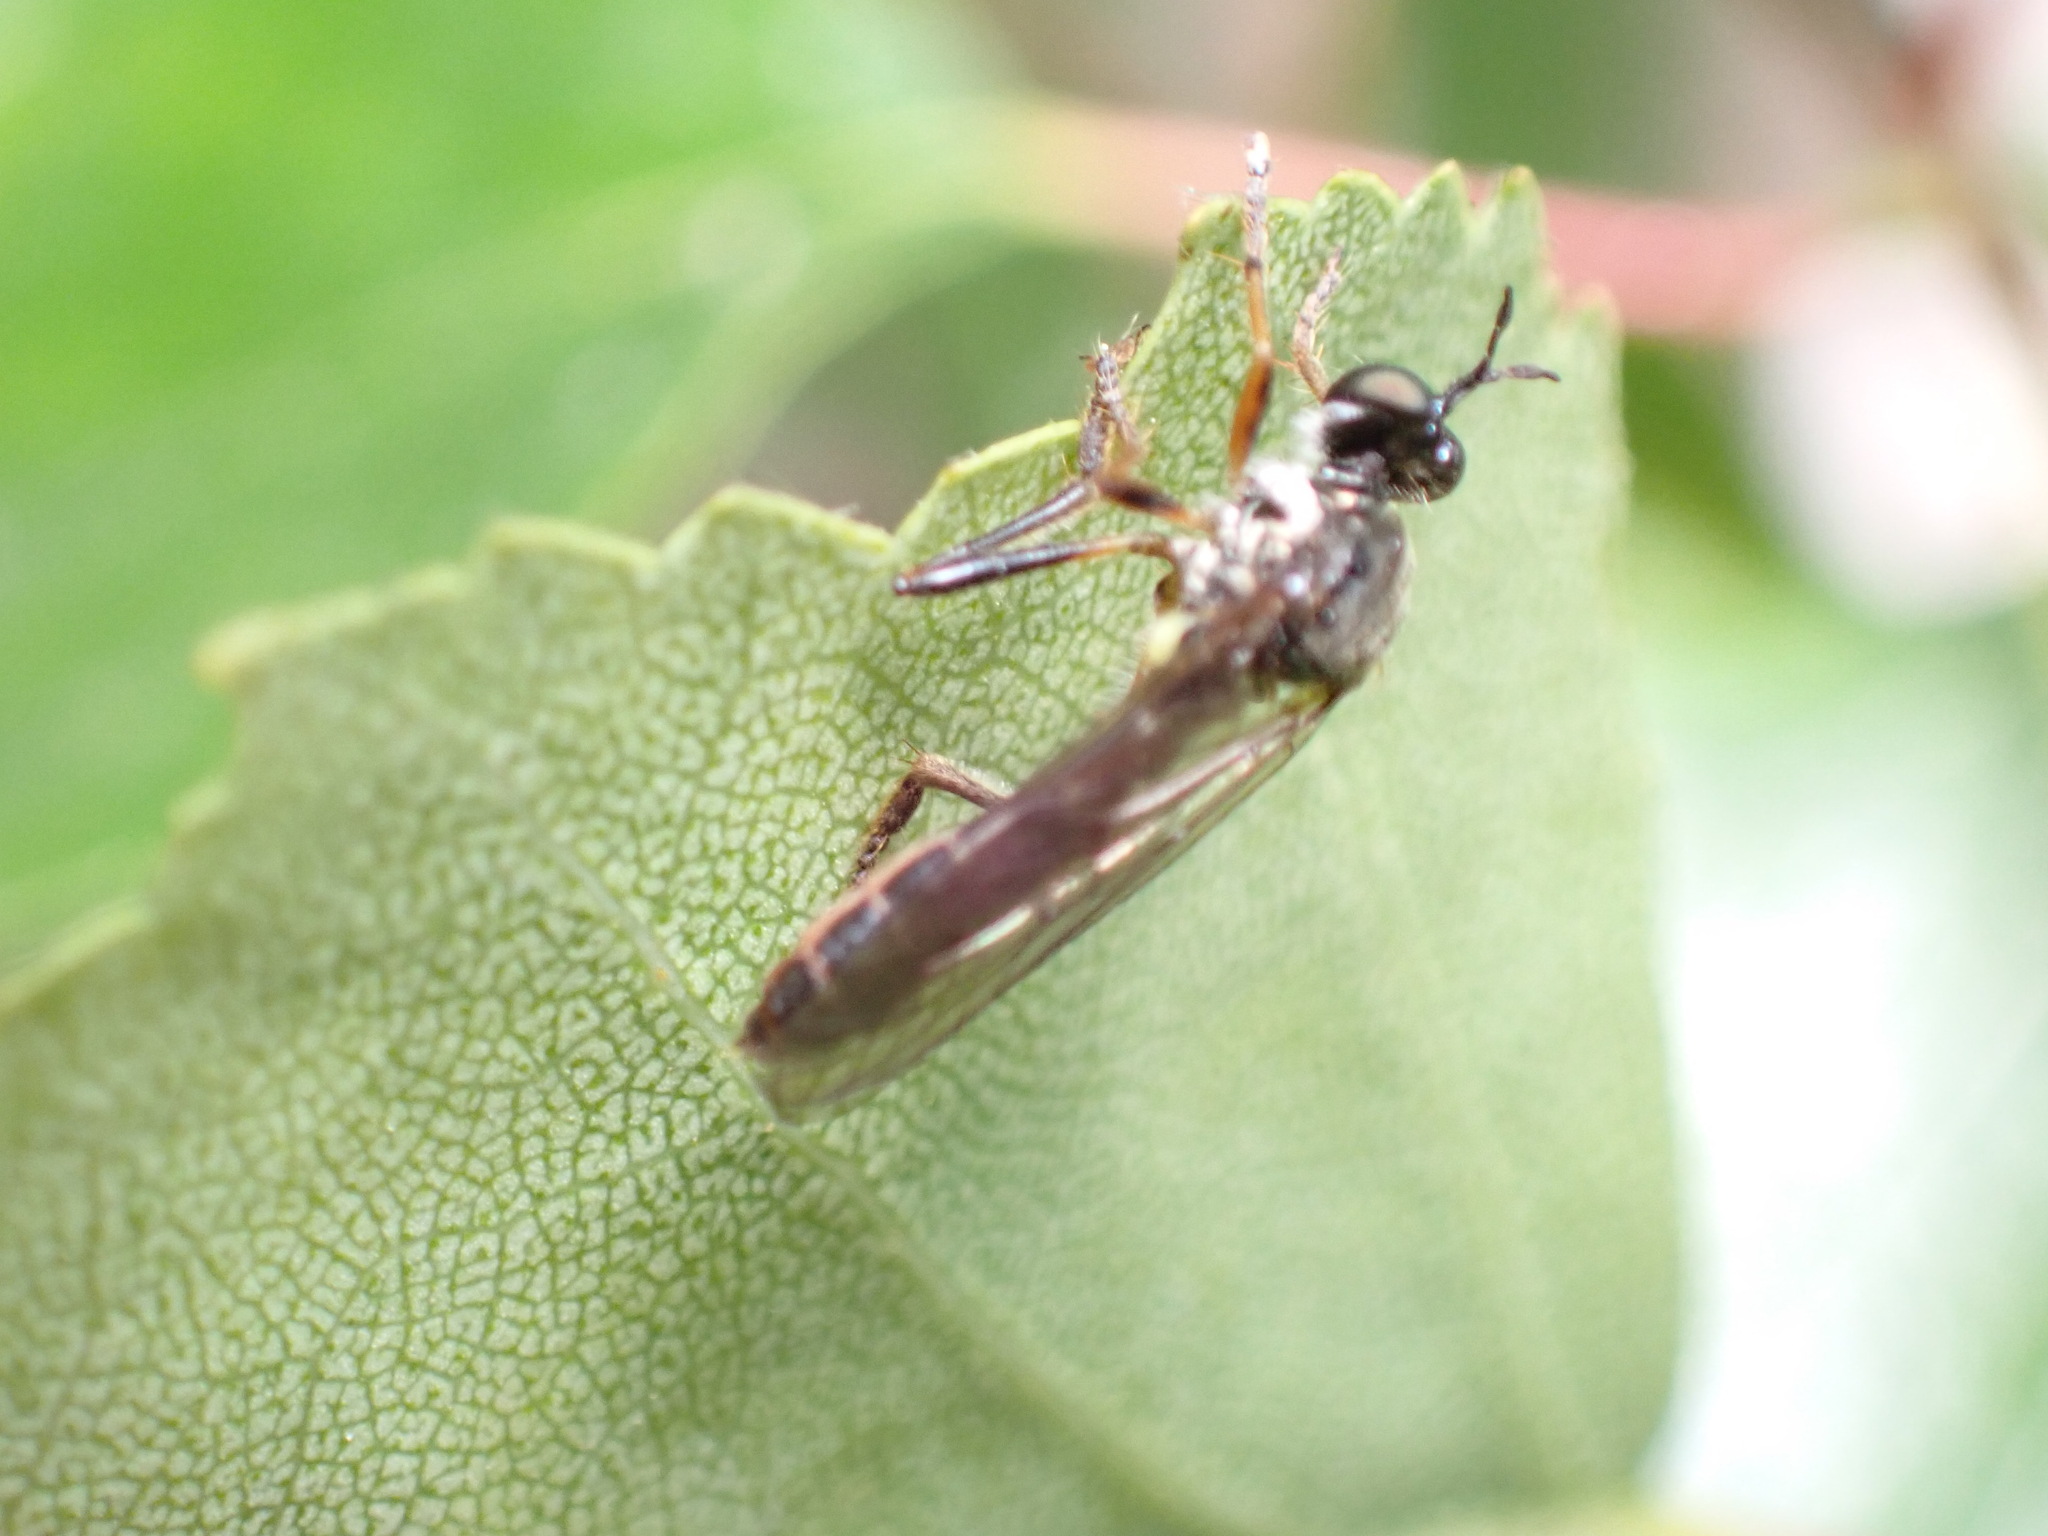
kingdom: Animalia
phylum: Arthropoda
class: Insecta
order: Diptera
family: Asilidae
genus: Dioctria
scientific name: Dioctria hyalipennis
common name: Stripe-legged robberfly
